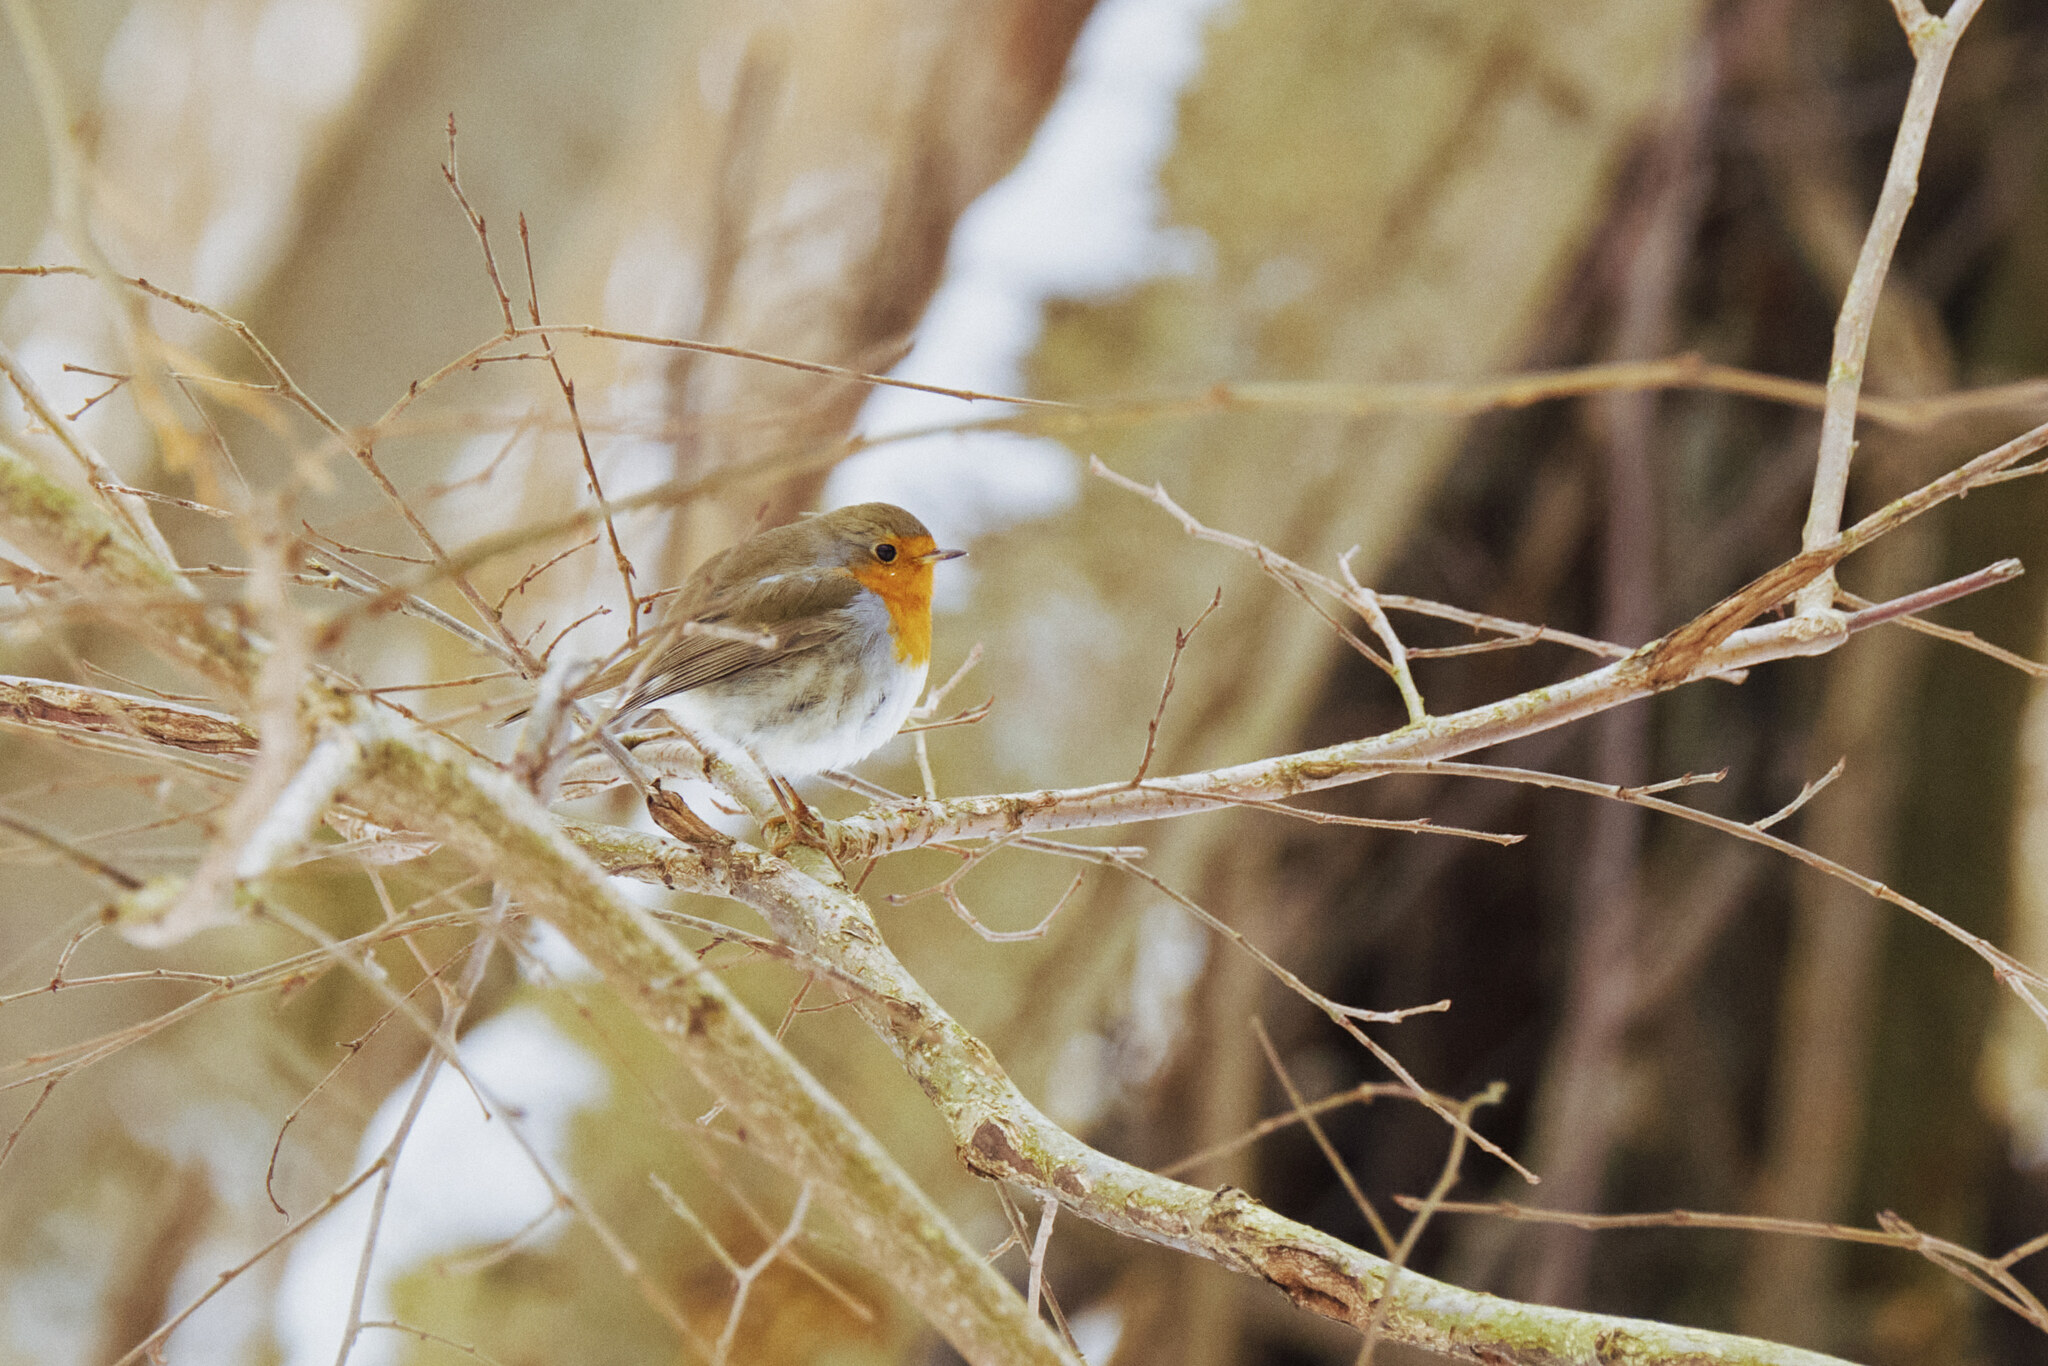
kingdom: Animalia
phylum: Chordata
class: Aves
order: Passeriformes
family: Muscicapidae
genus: Erithacus
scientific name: Erithacus rubecula
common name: European robin
